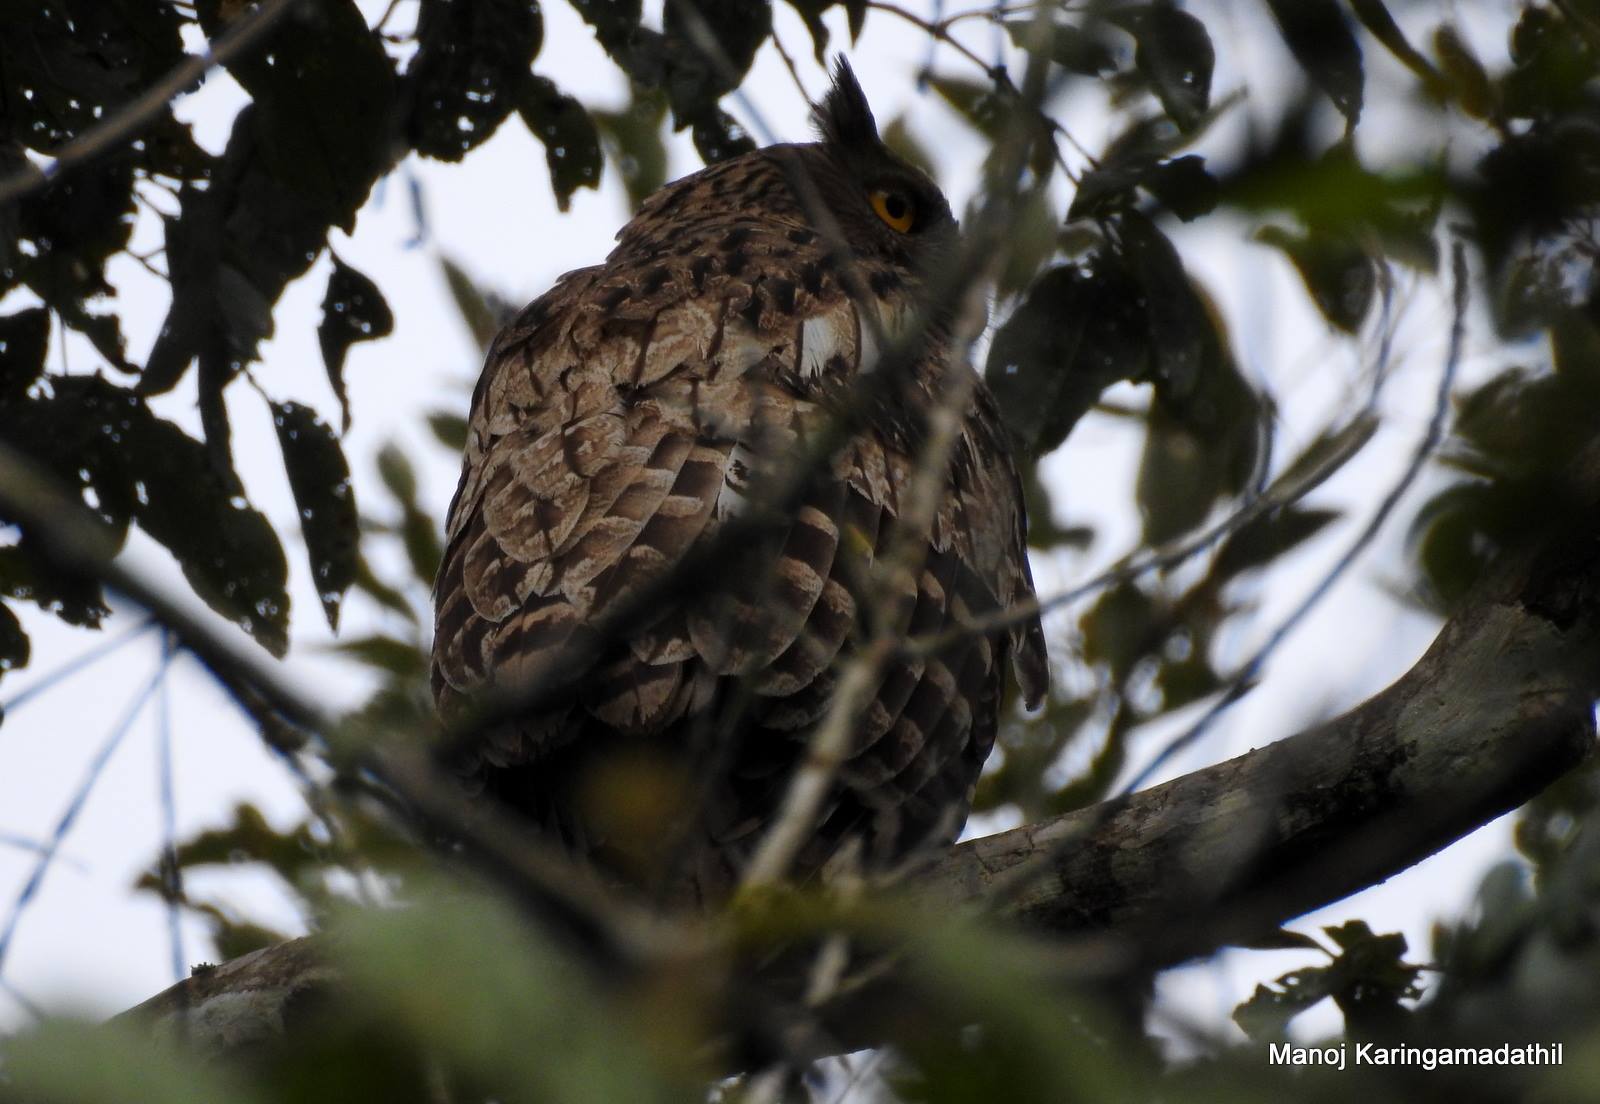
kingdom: Animalia
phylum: Chordata
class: Aves
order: Strigiformes
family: Strigidae
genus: Ketupa
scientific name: Ketupa zeylonensis
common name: Brown fish owl
